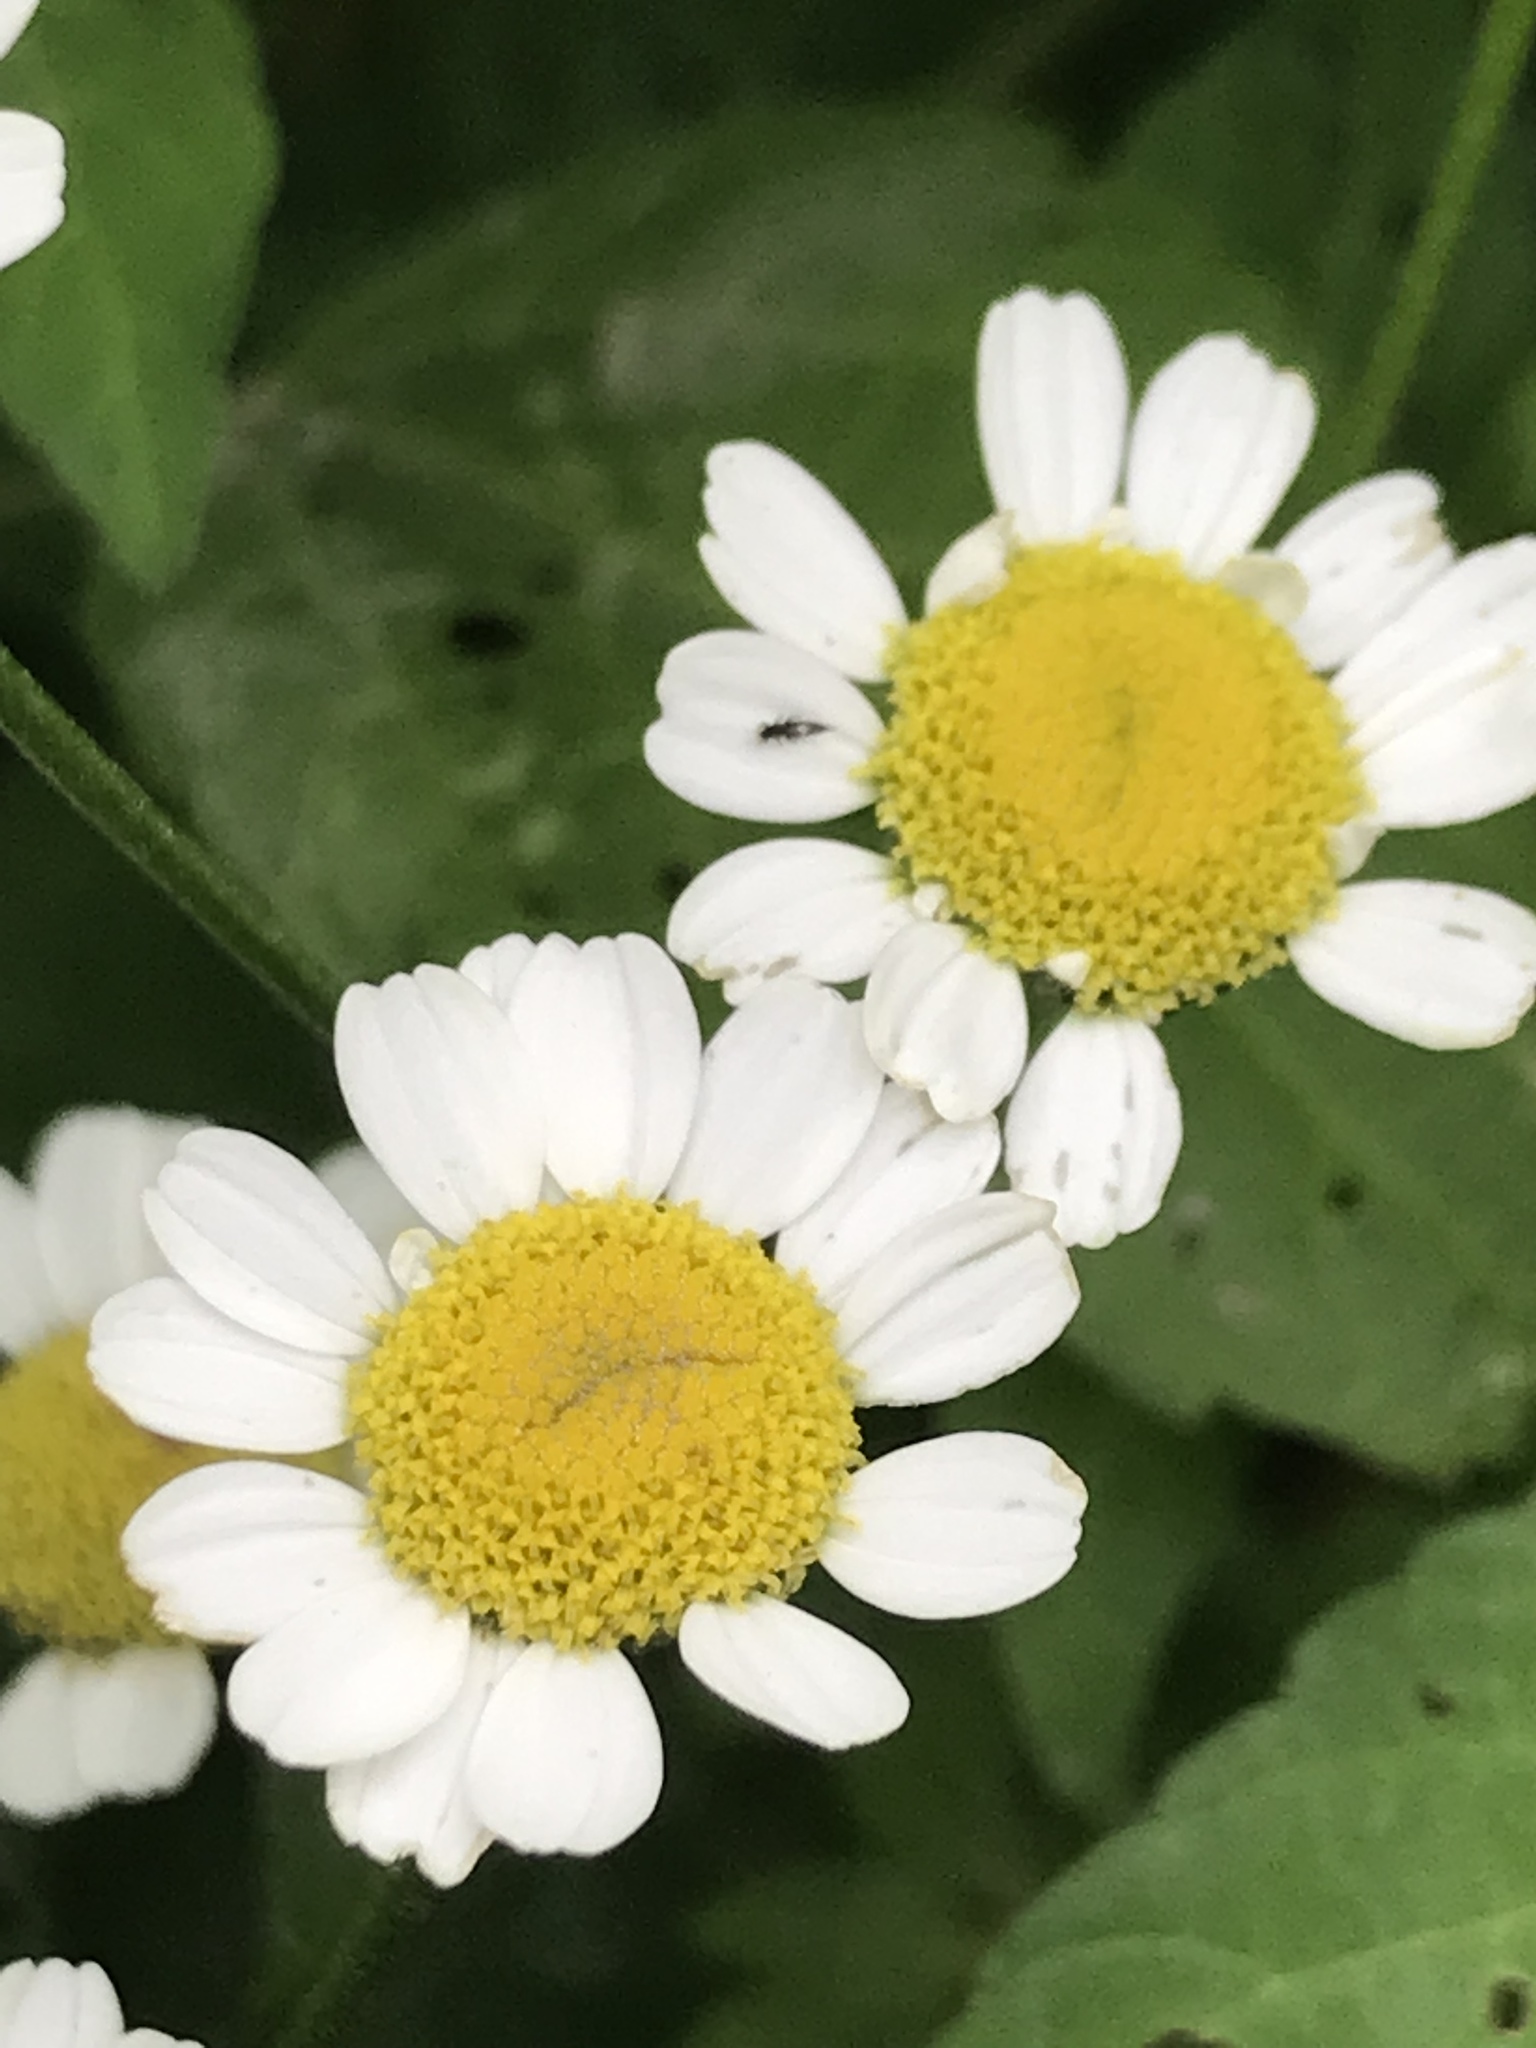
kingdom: Plantae
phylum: Tracheophyta
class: Magnoliopsida
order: Asterales
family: Asteraceae
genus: Tanacetum
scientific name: Tanacetum parthenium
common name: Feverfew
